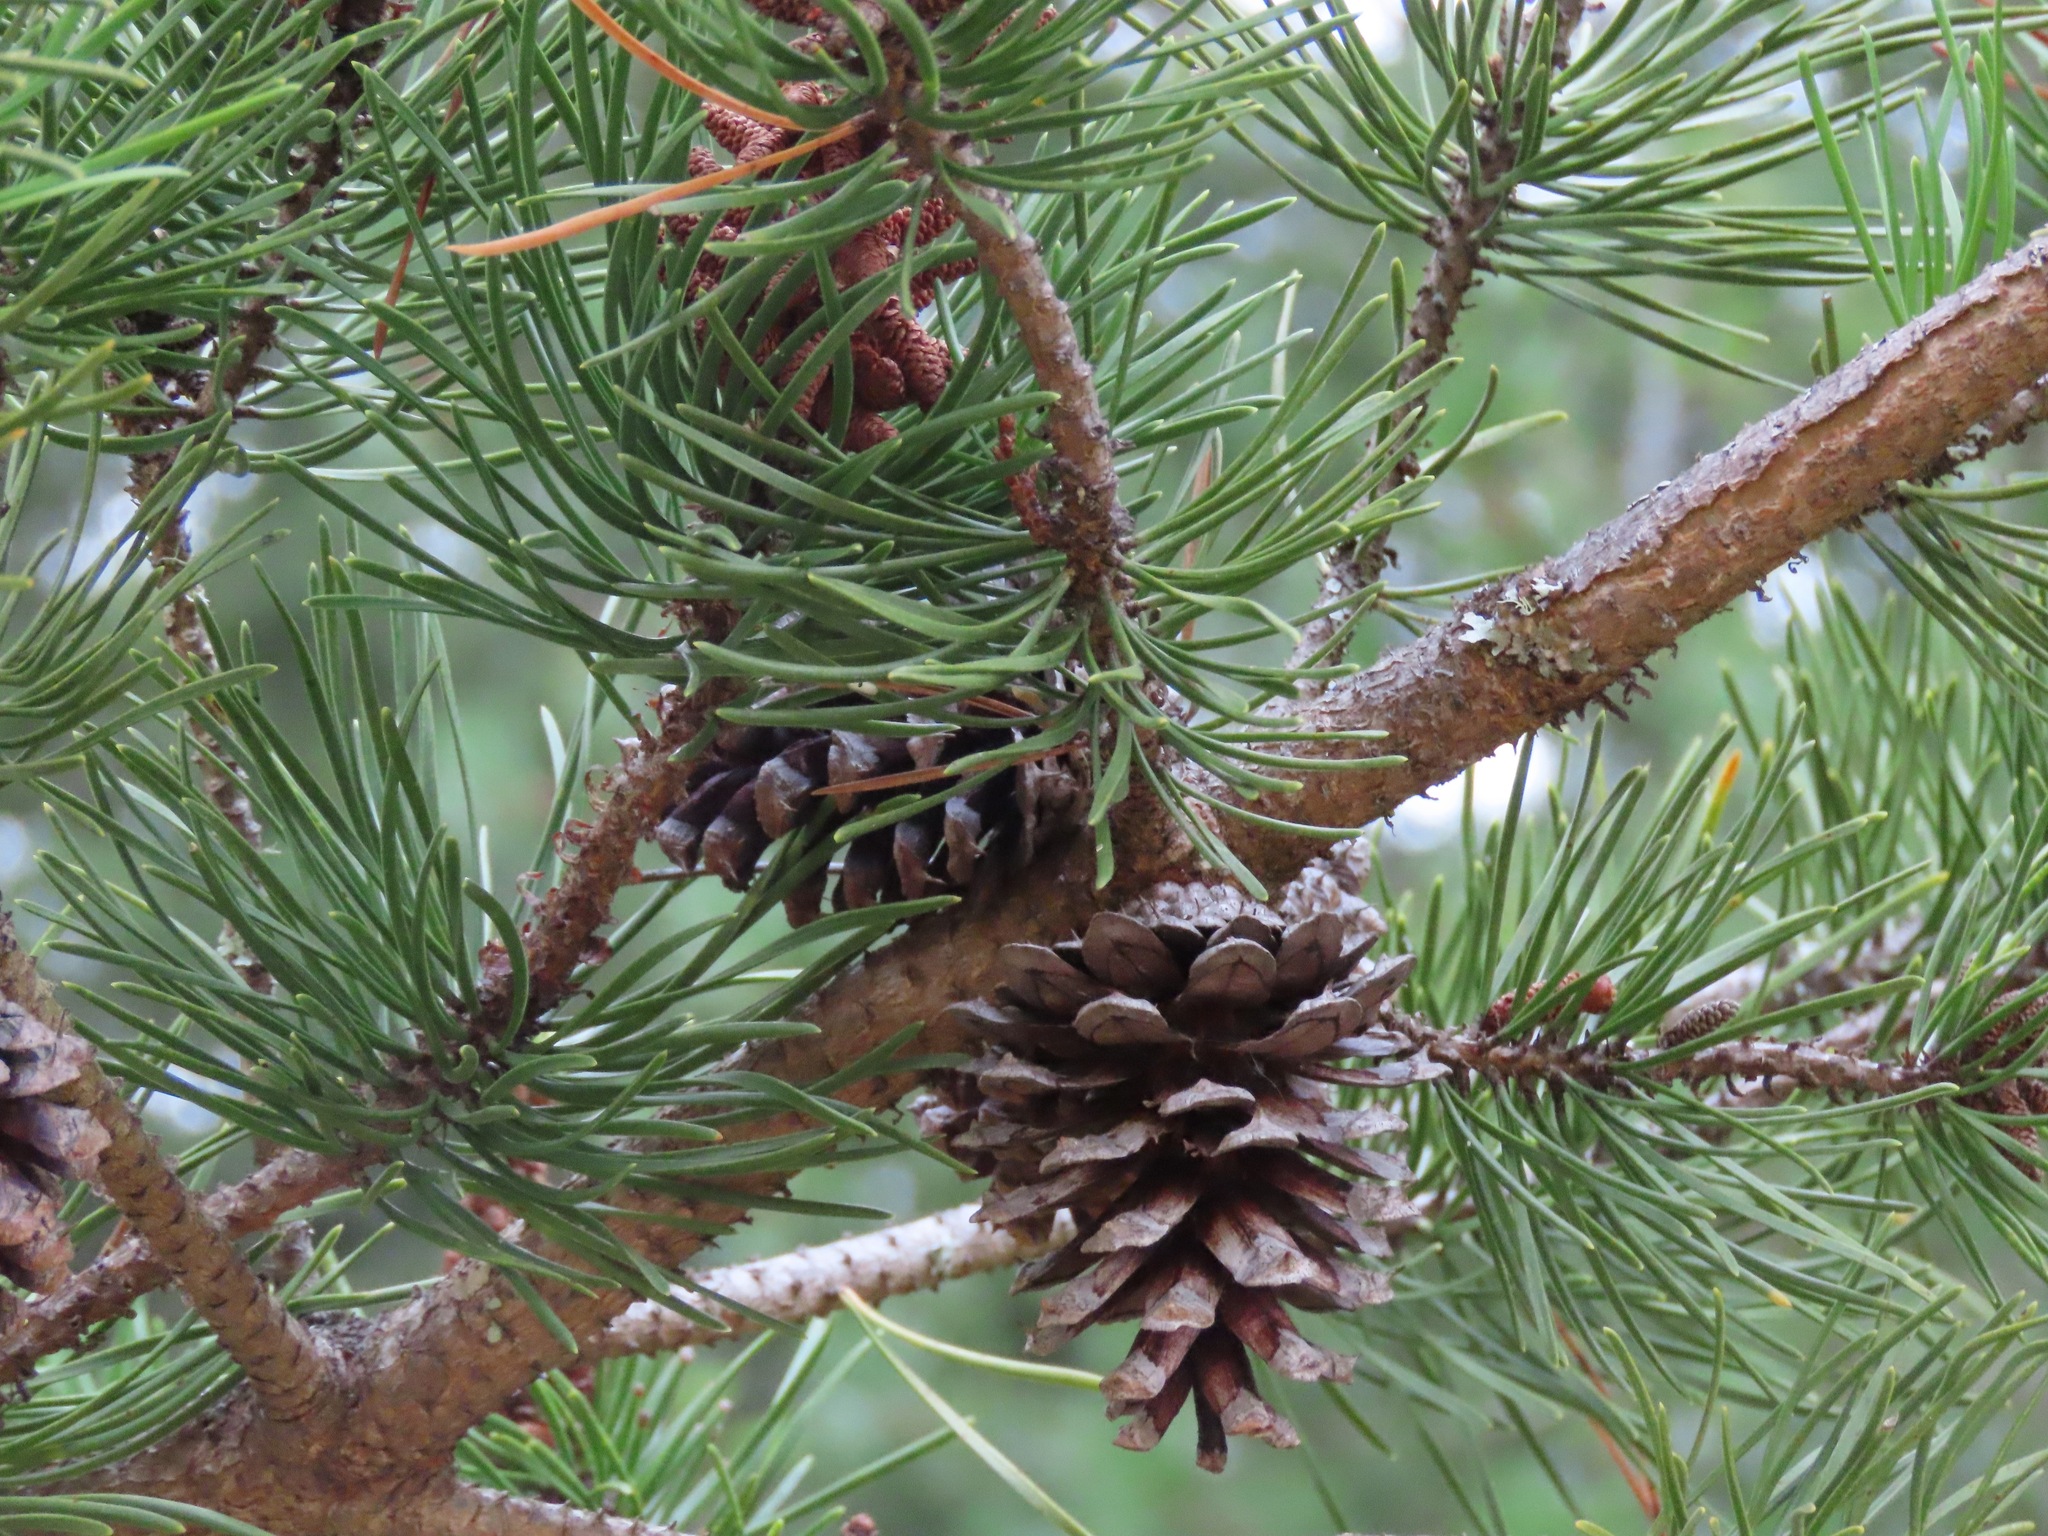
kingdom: Plantae
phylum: Tracheophyta
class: Pinopsida
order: Pinales
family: Pinaceae
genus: Pinus
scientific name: Pinus contorta
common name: Lodgepole pine
